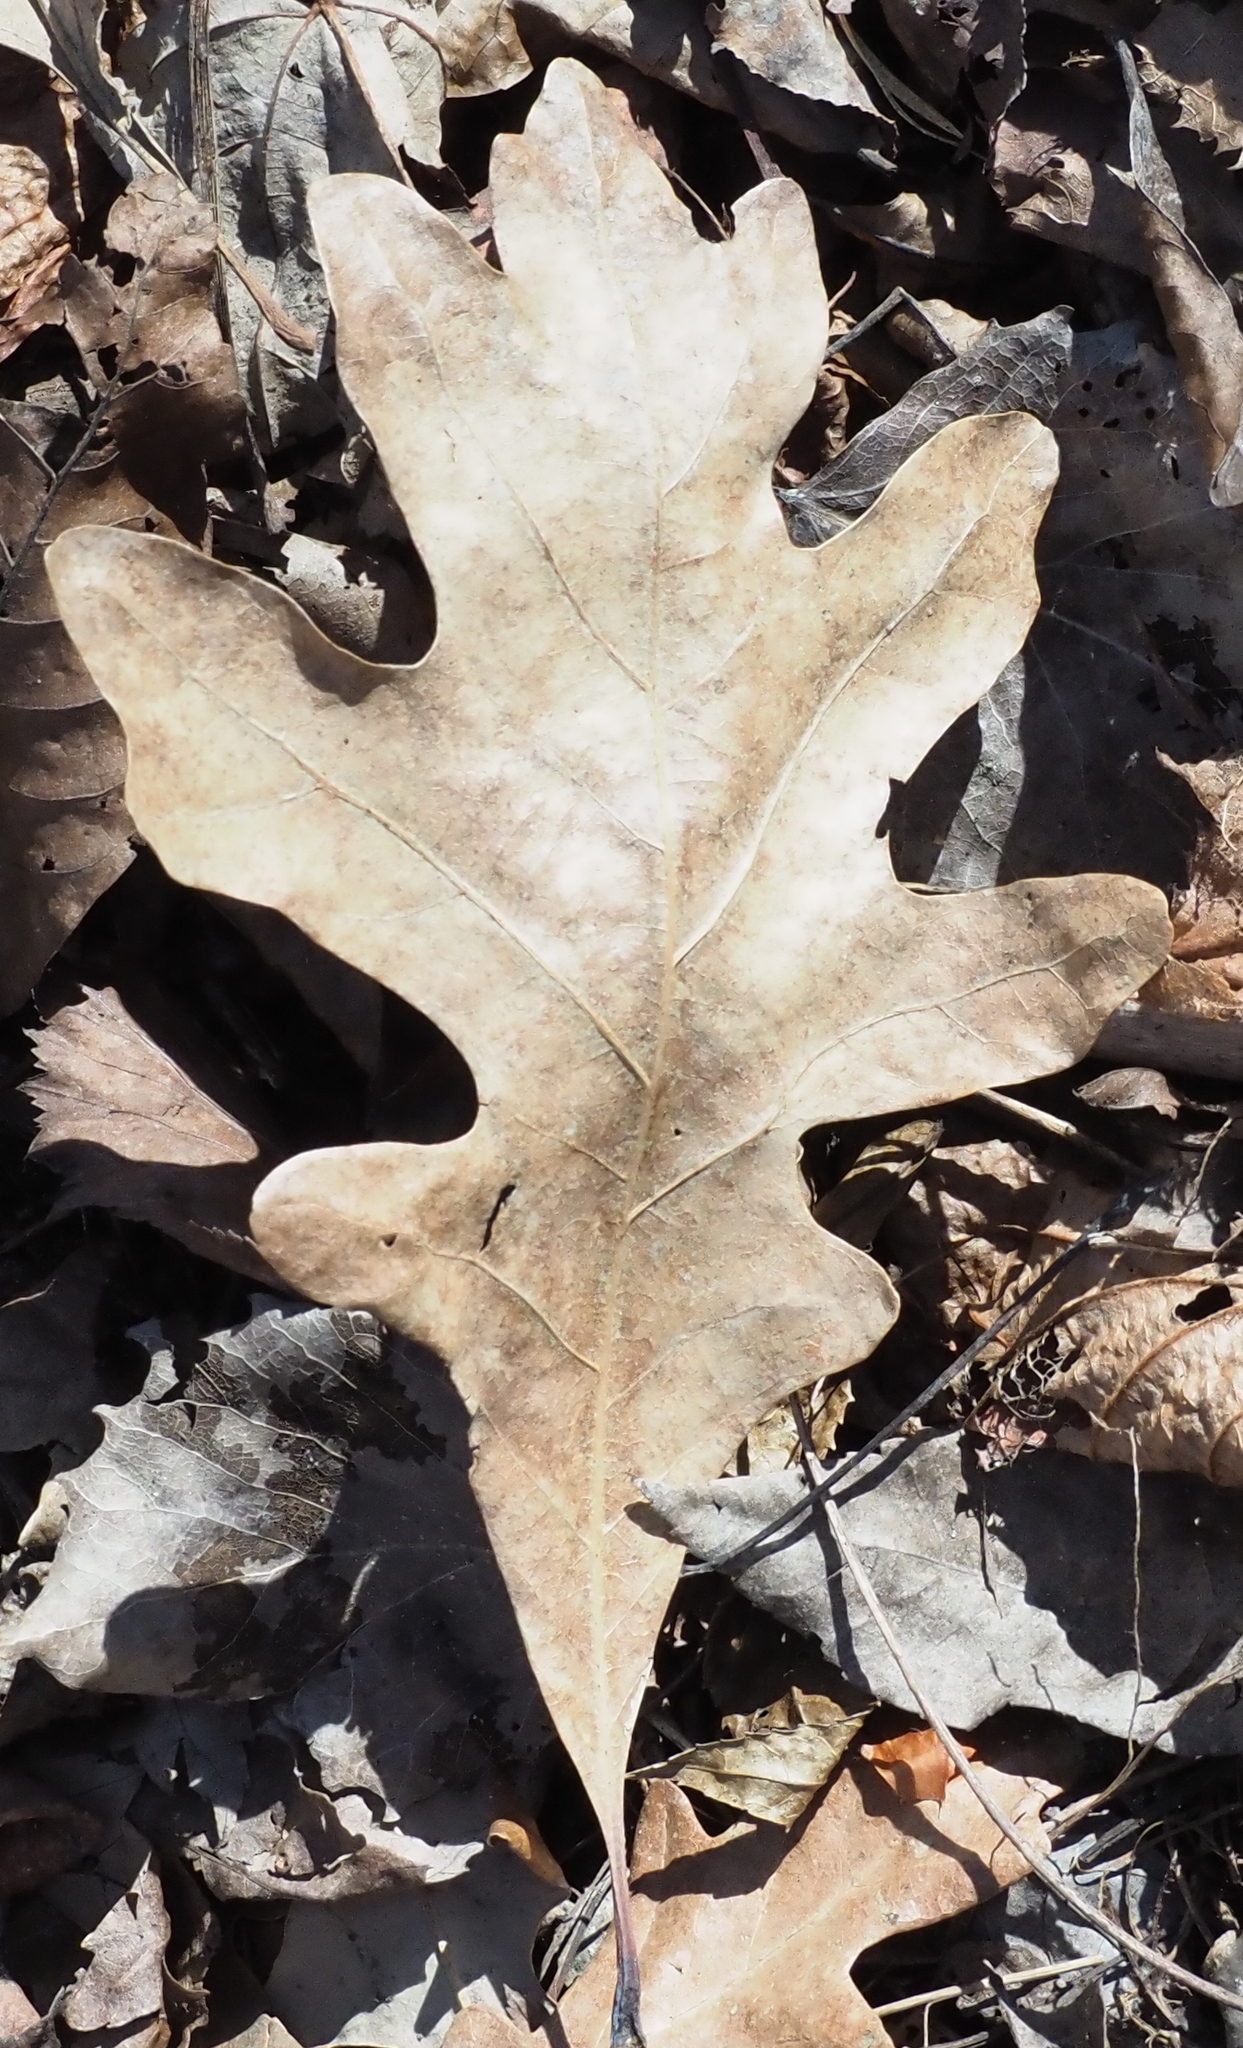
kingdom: Plantae
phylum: Tracheophyta
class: Magnoliopsida
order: Fagales
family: Fagaceae
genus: Quercus
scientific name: Quercus alba
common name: White oak
